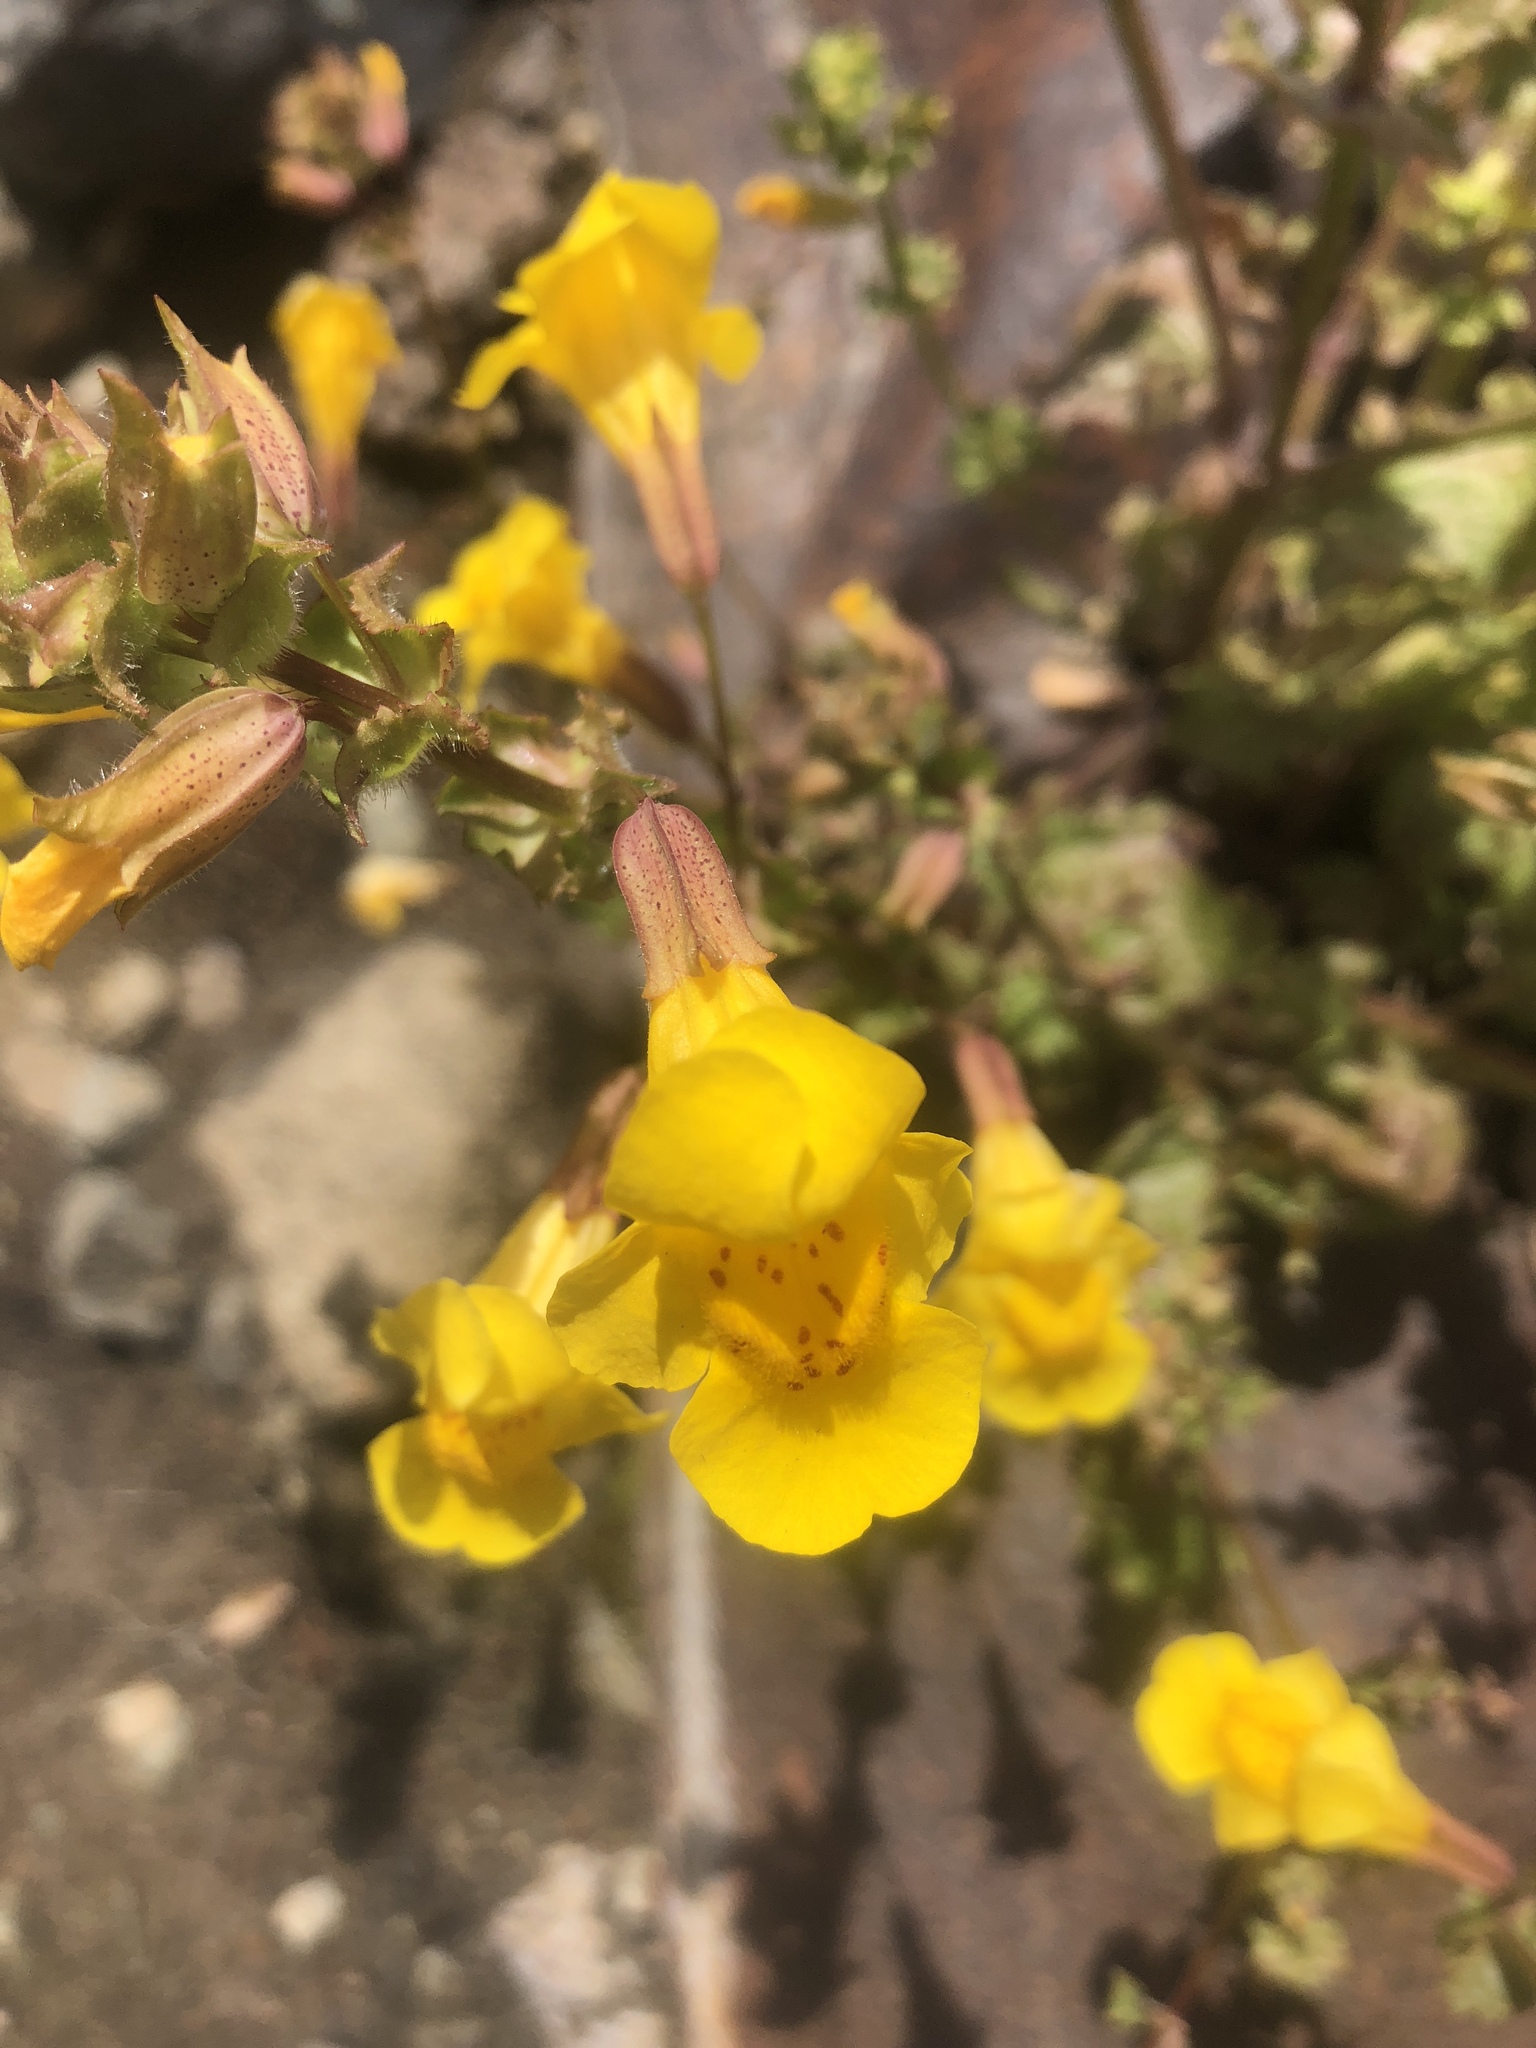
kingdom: Plantae
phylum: Tracheophyta
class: Magnoliopsida
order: Lamiales
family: Phrymaceae
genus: Erythranthe
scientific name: Erythranthe guttata
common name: Monkeyflower
